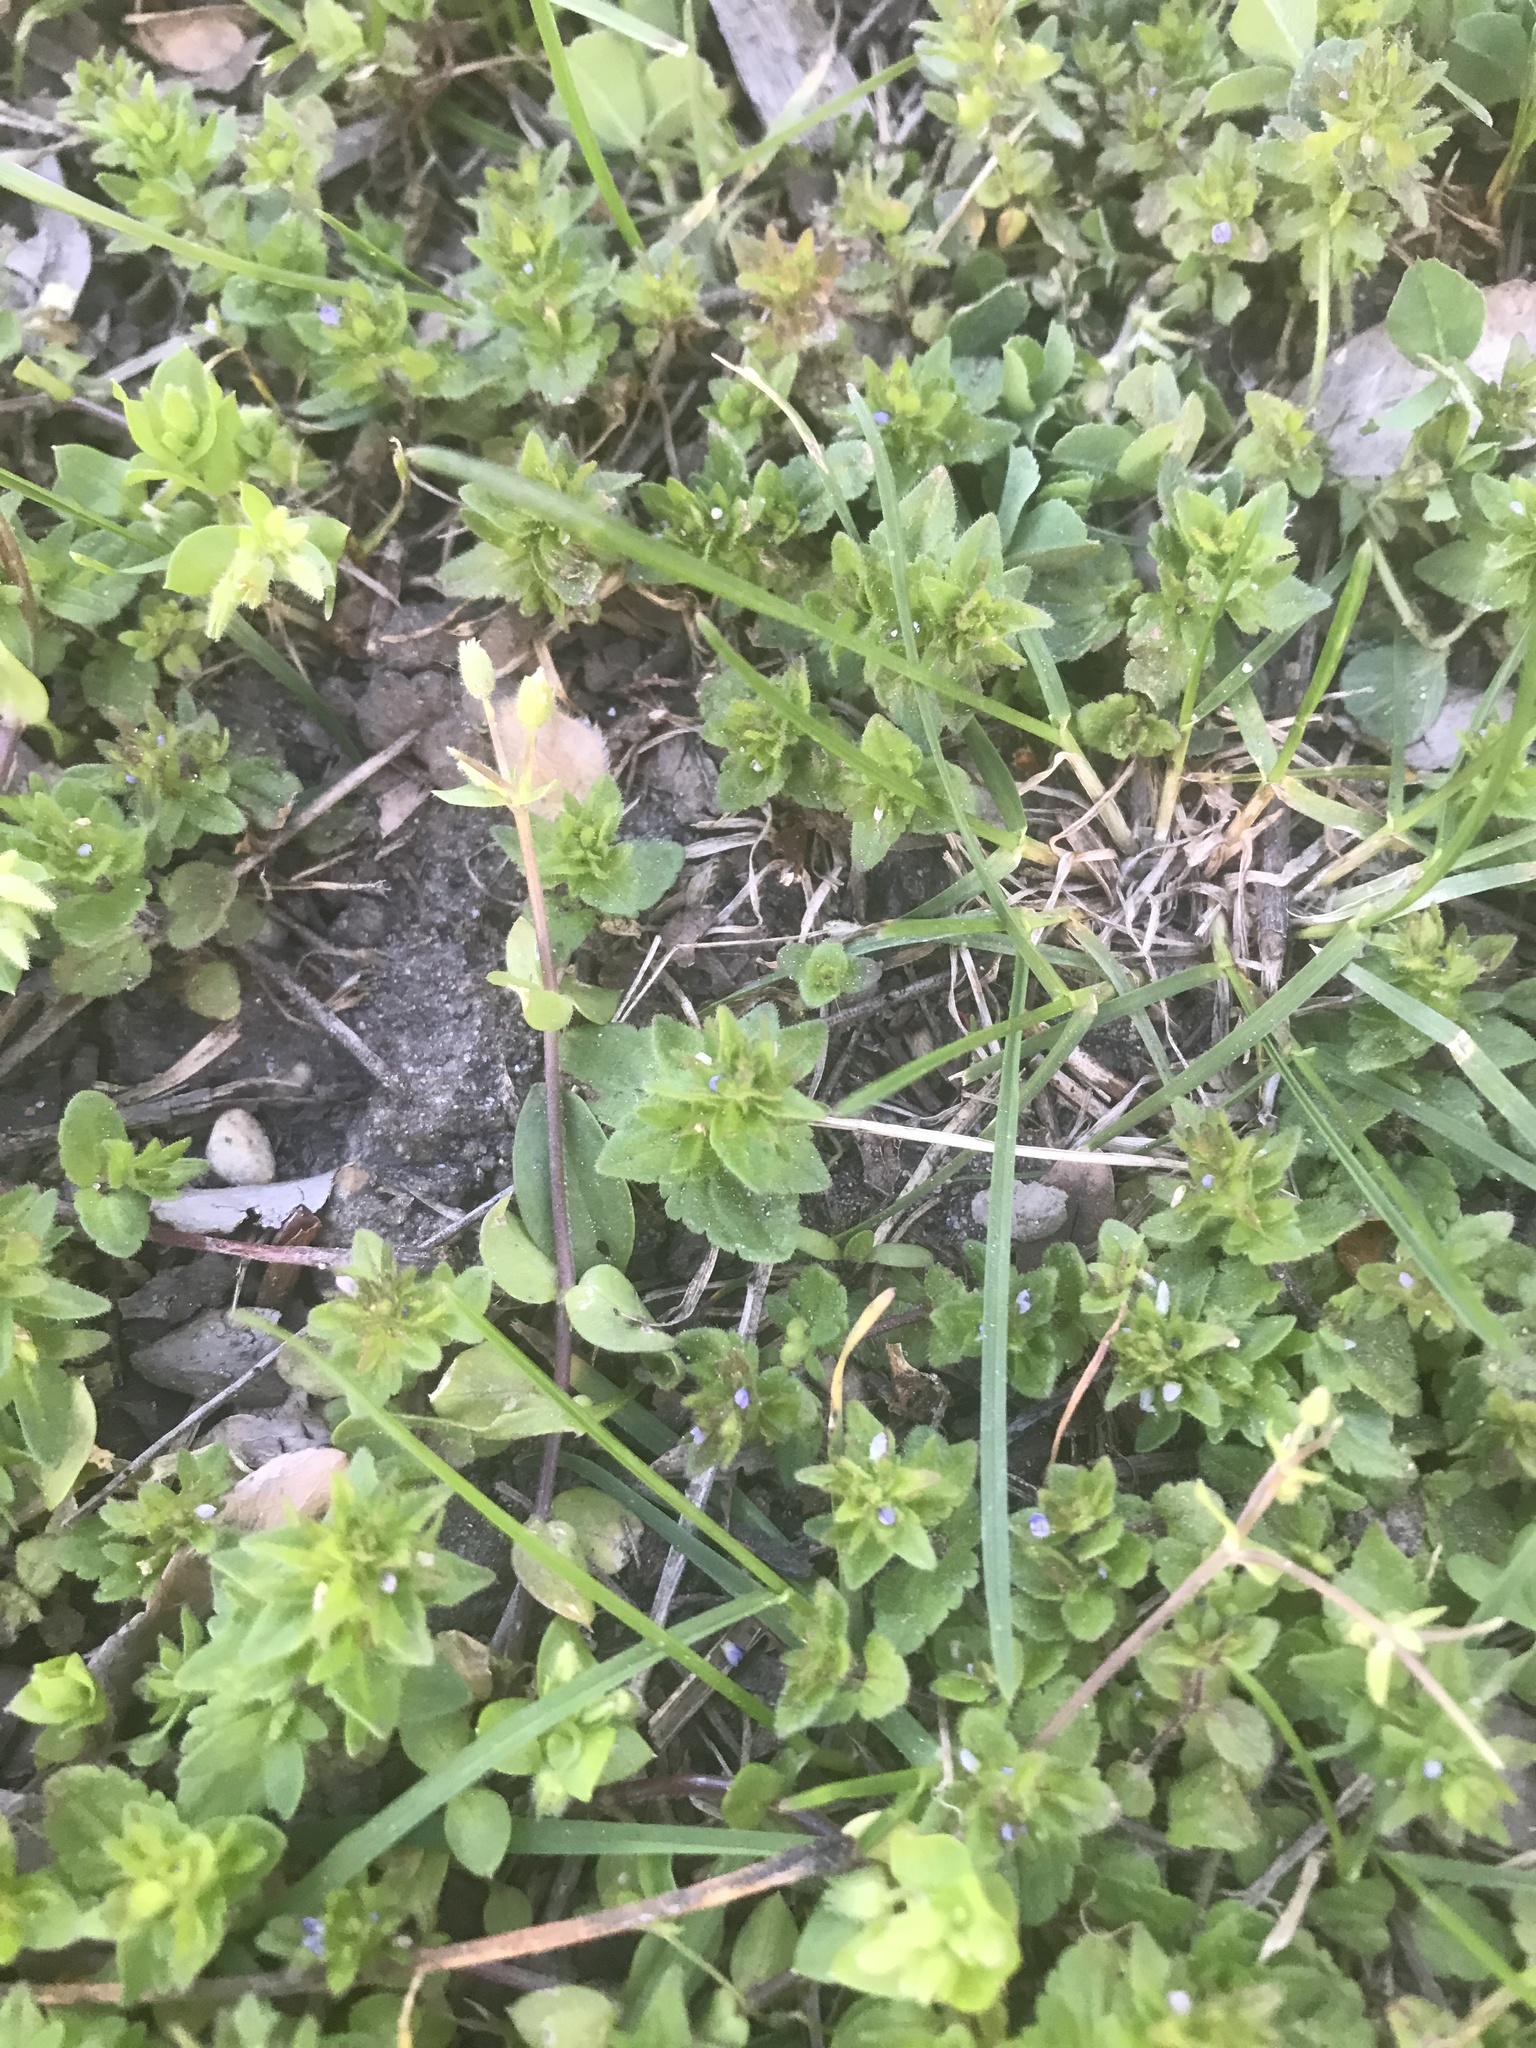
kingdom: Plantae
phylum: Tracheophyta
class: Magnoliopsida
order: Lamiales
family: Plantaginaceae
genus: Veronica
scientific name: Veronica arvensis
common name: Corn speedwell
